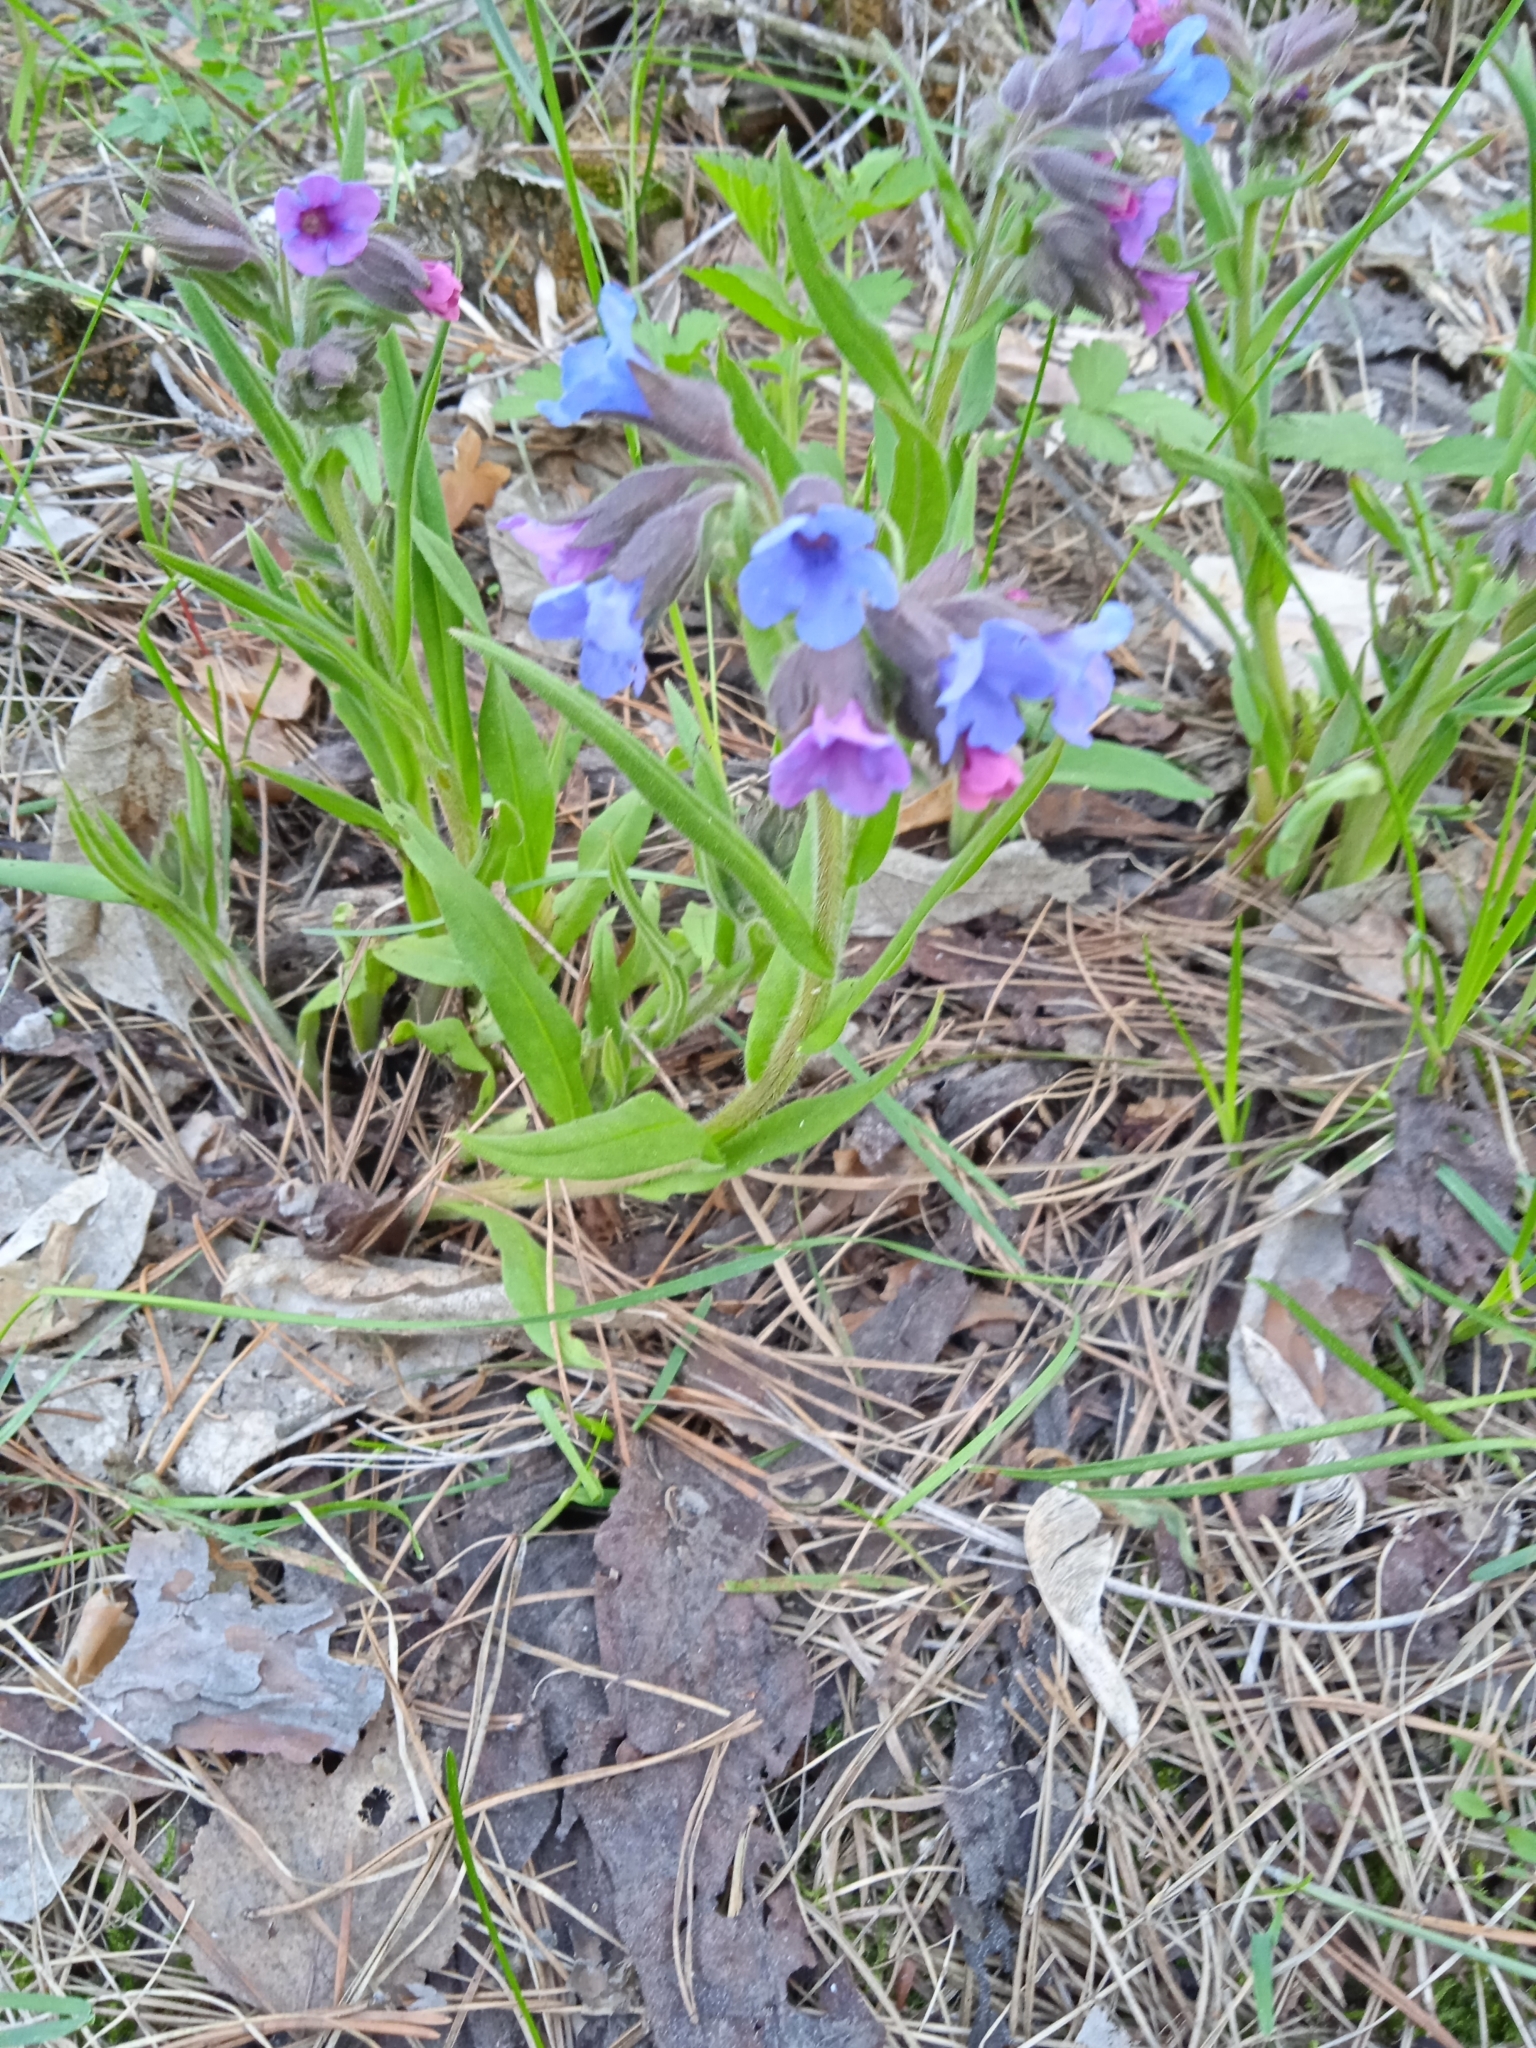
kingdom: Plantae
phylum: Tracheophyta
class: Magnoliopsida
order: Boraginales
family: Boraginaceae
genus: Pulmonaria
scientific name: Pulmonaria angustifolia
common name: Blue cowslip
